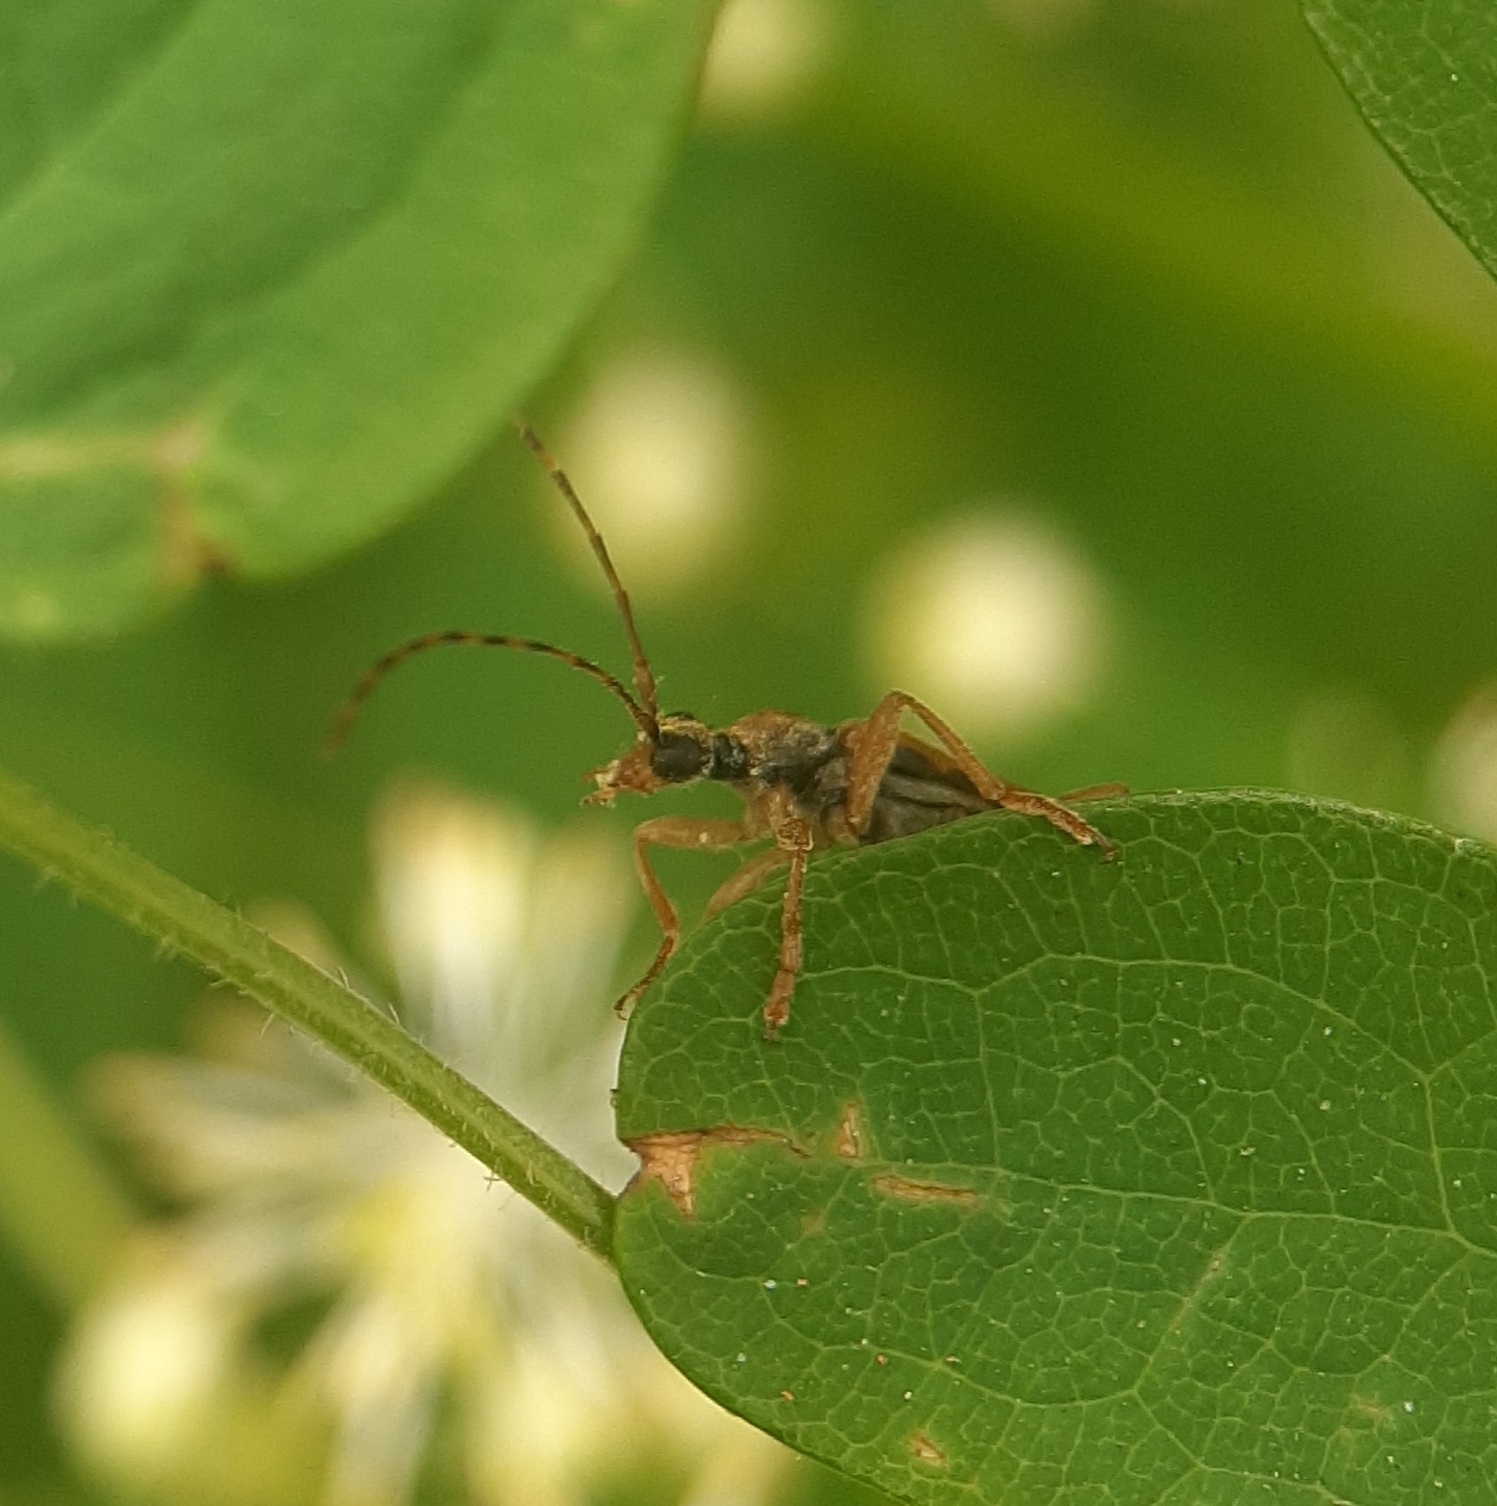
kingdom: Animalia
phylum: Arthropoda
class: Insecta
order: Coleoptera
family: Cerambycidae
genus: Analeptura
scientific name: Analeptura lineola
